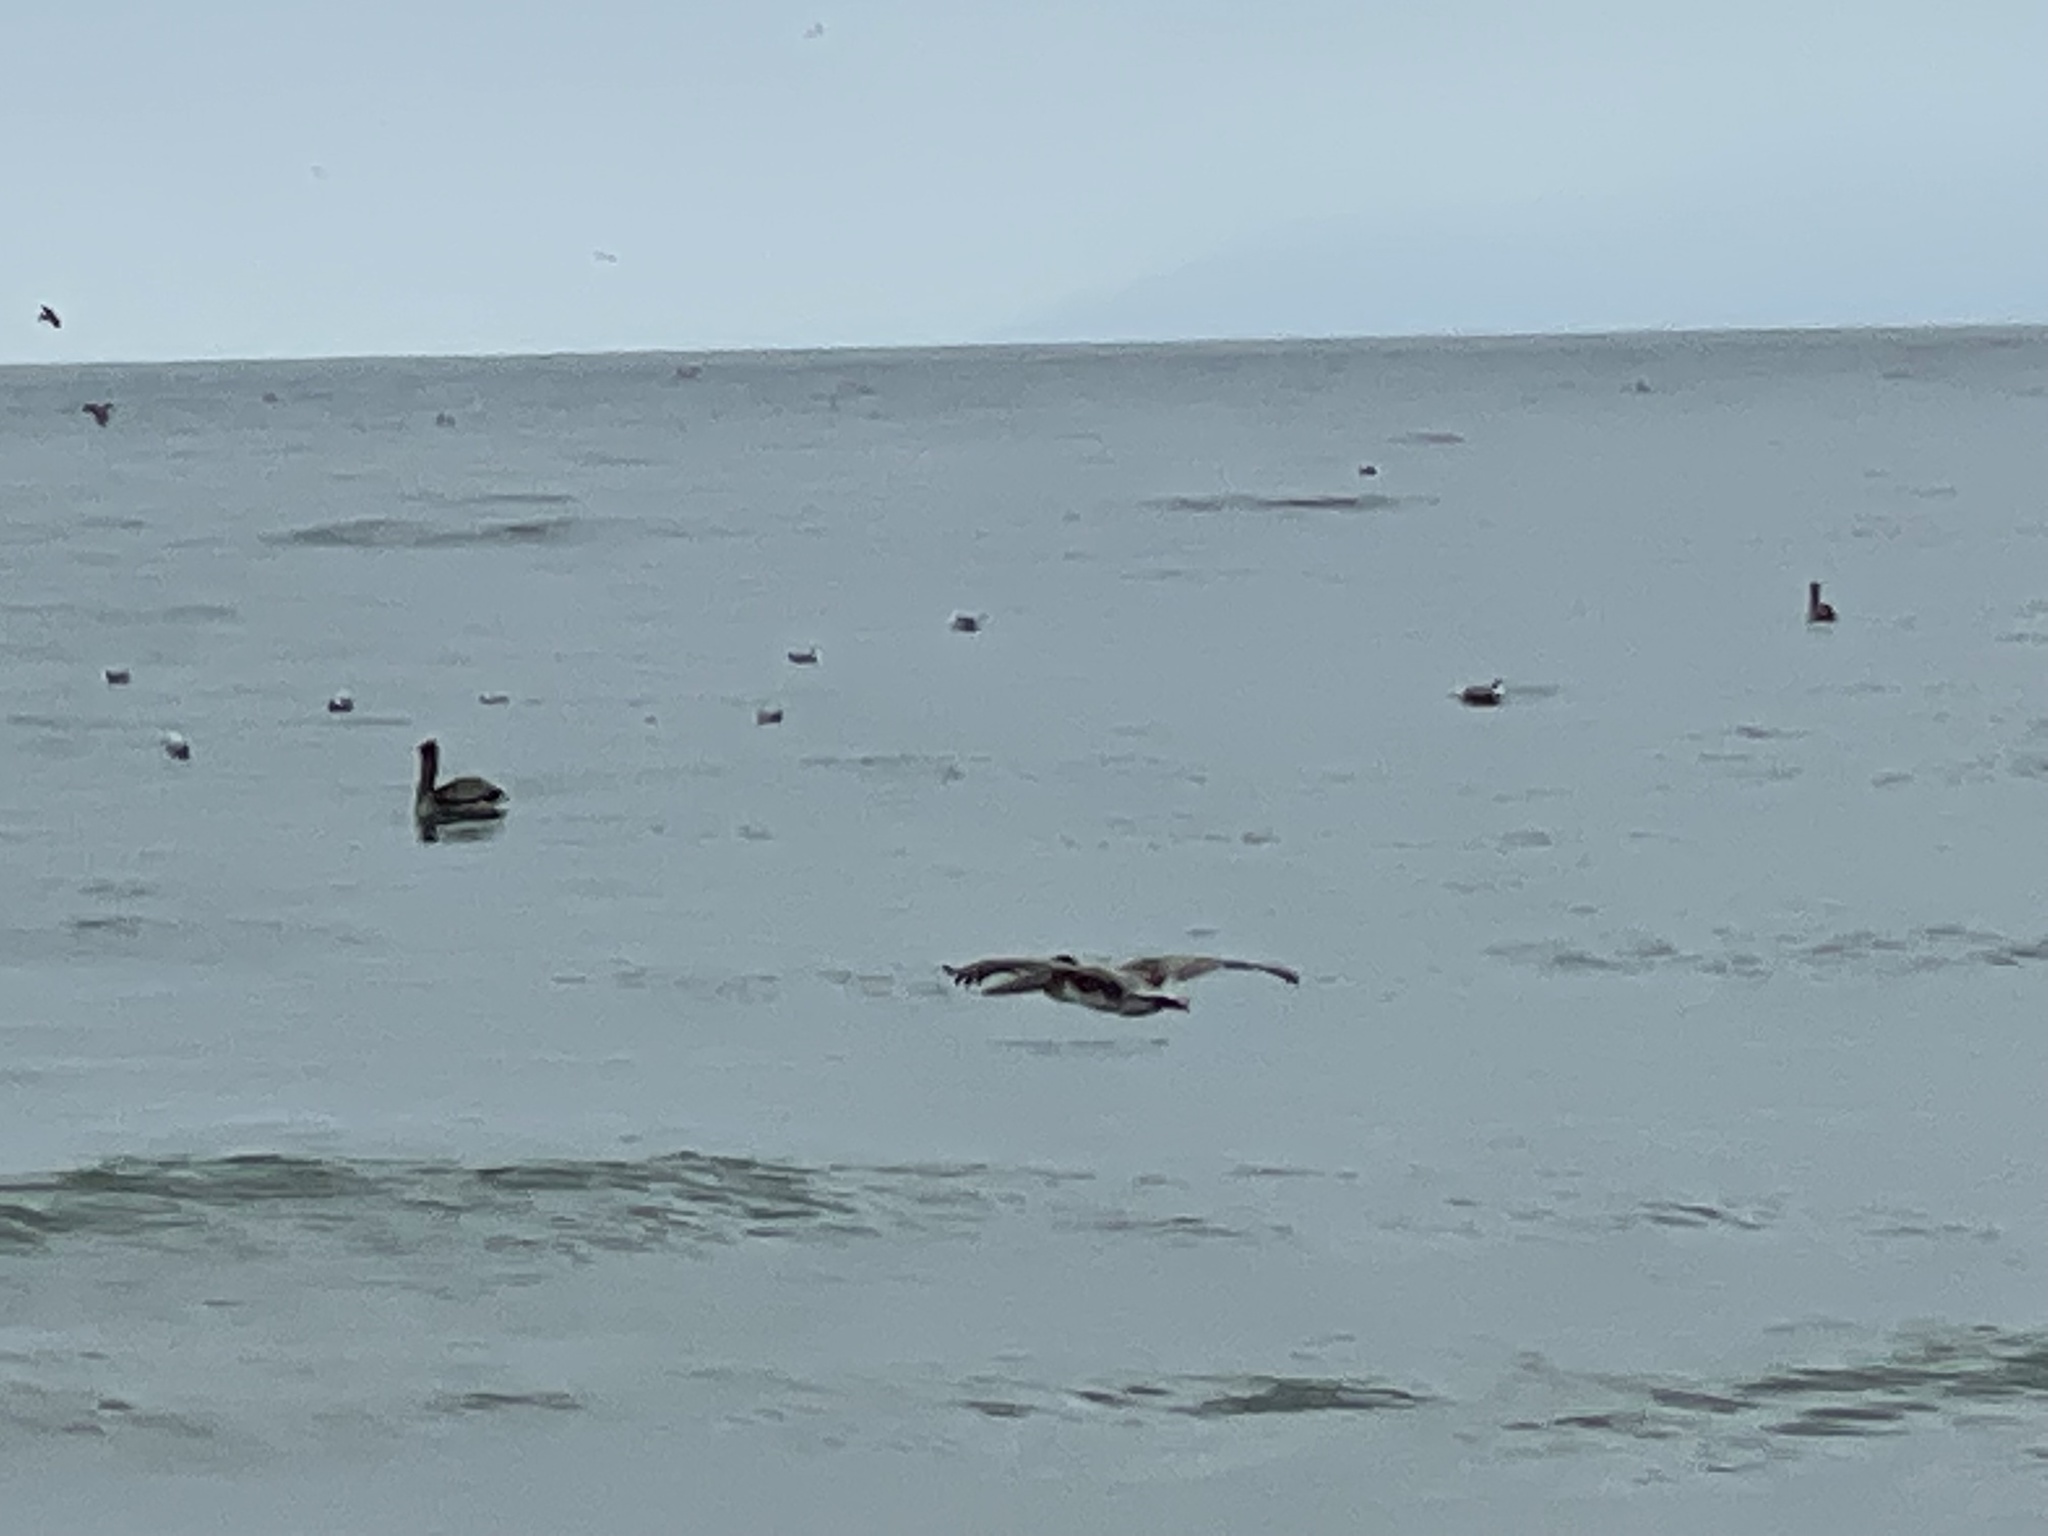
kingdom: Animalia
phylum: Chordata
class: Aves
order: Pelecaniformes
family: Pelecanidae
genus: Pelecanus
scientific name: Pelecanus occidentalis
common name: Brown pelican
